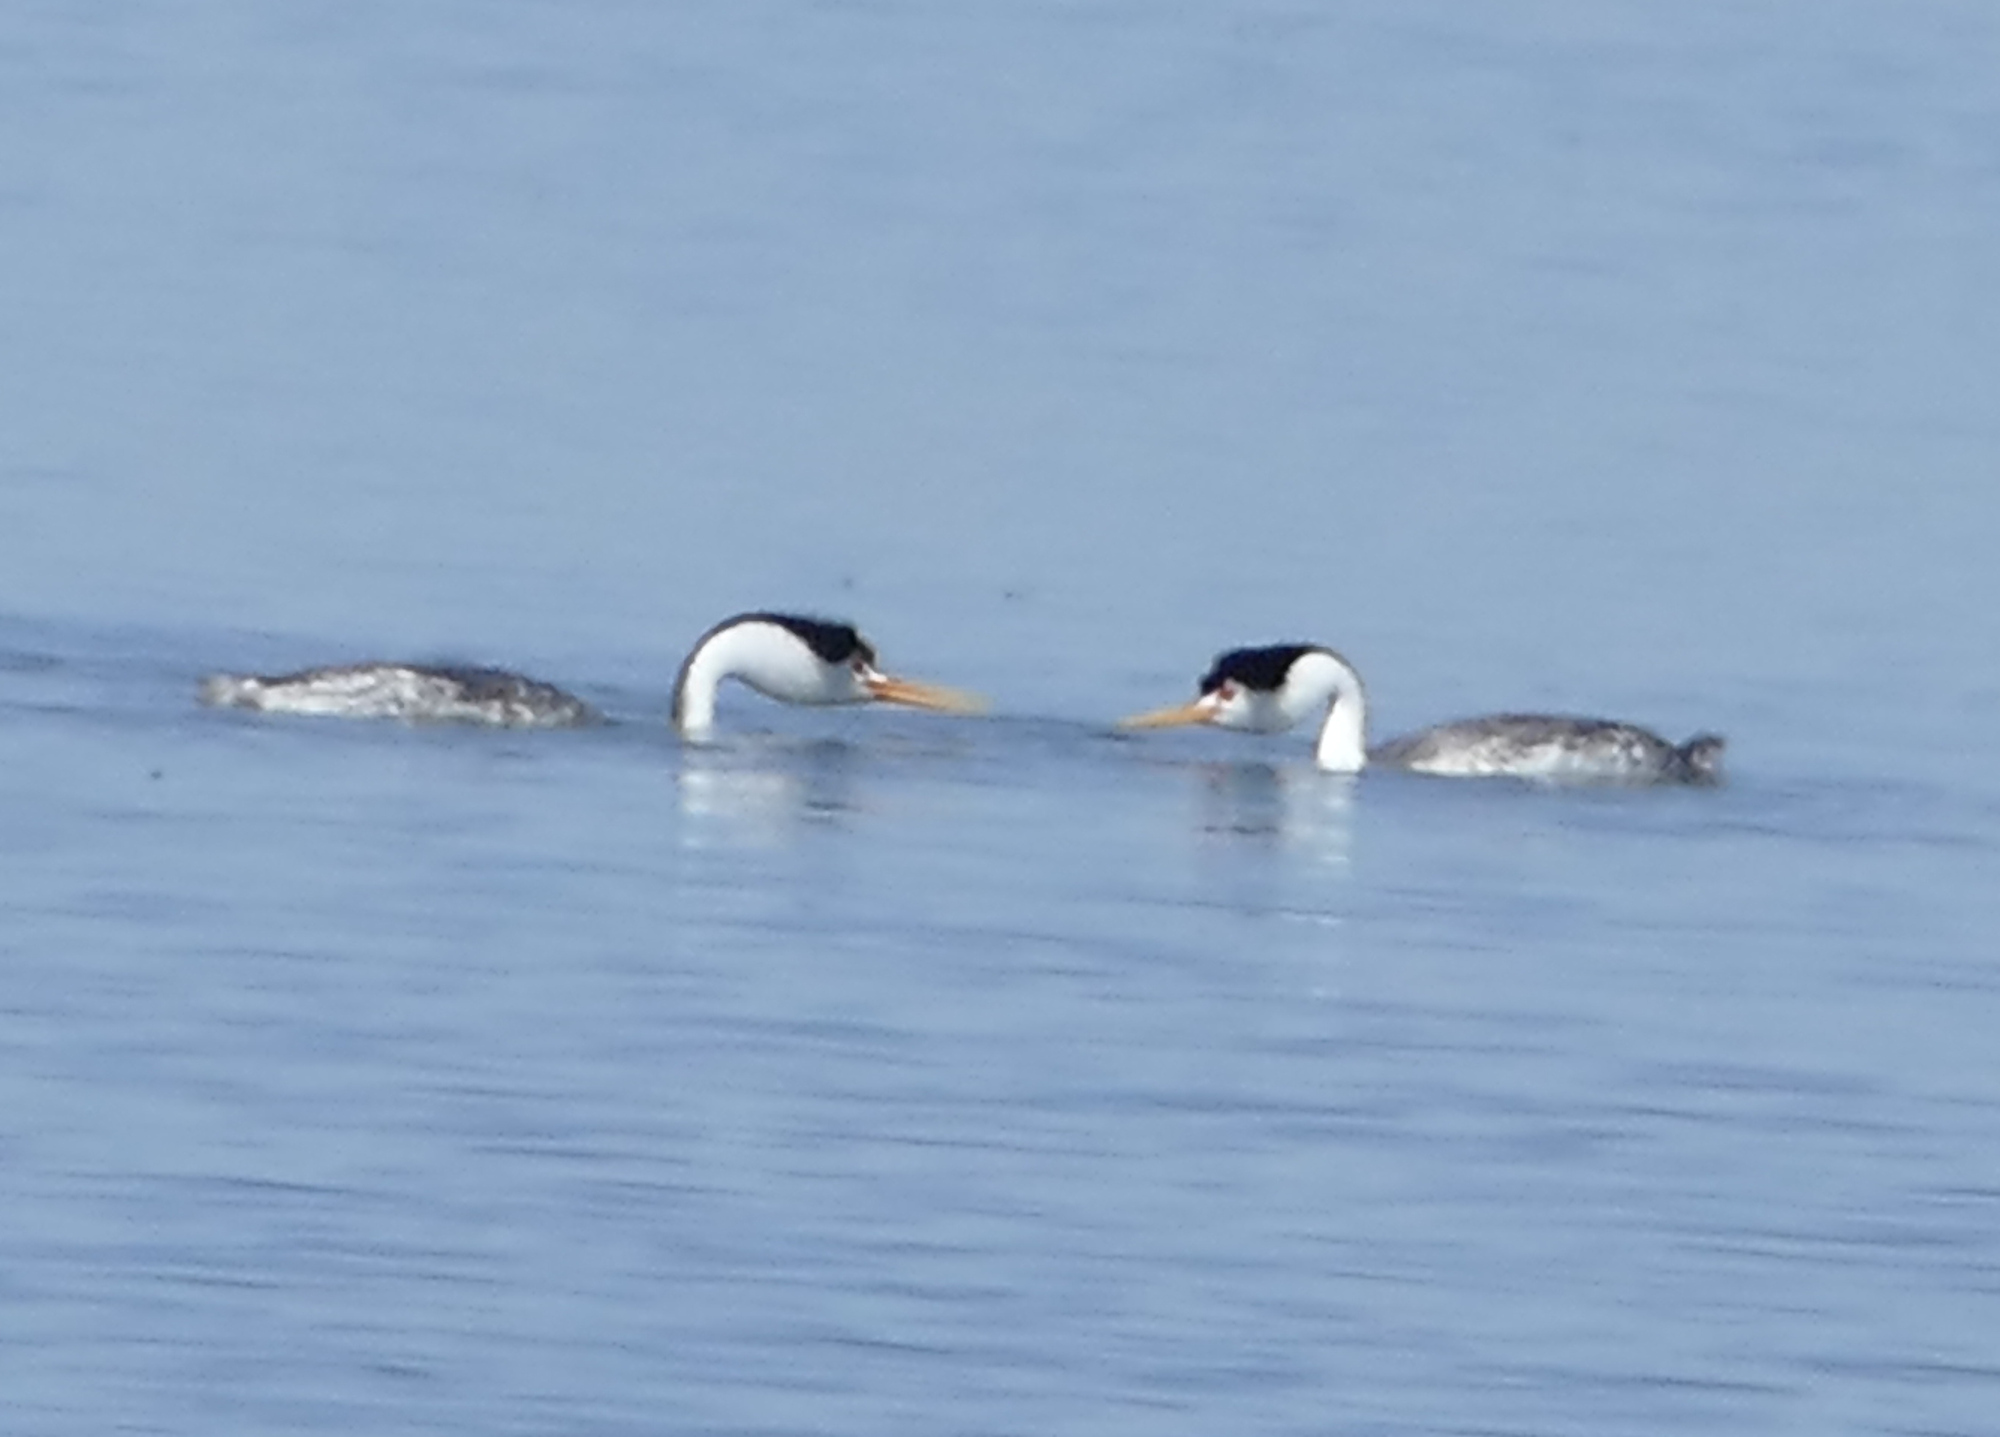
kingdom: Animalia
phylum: Chordata
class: Aves
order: Podicipediformes
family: Podicipedidae
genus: Aechmophorus
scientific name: Aechmophorus clarkii
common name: Clark's grebe
